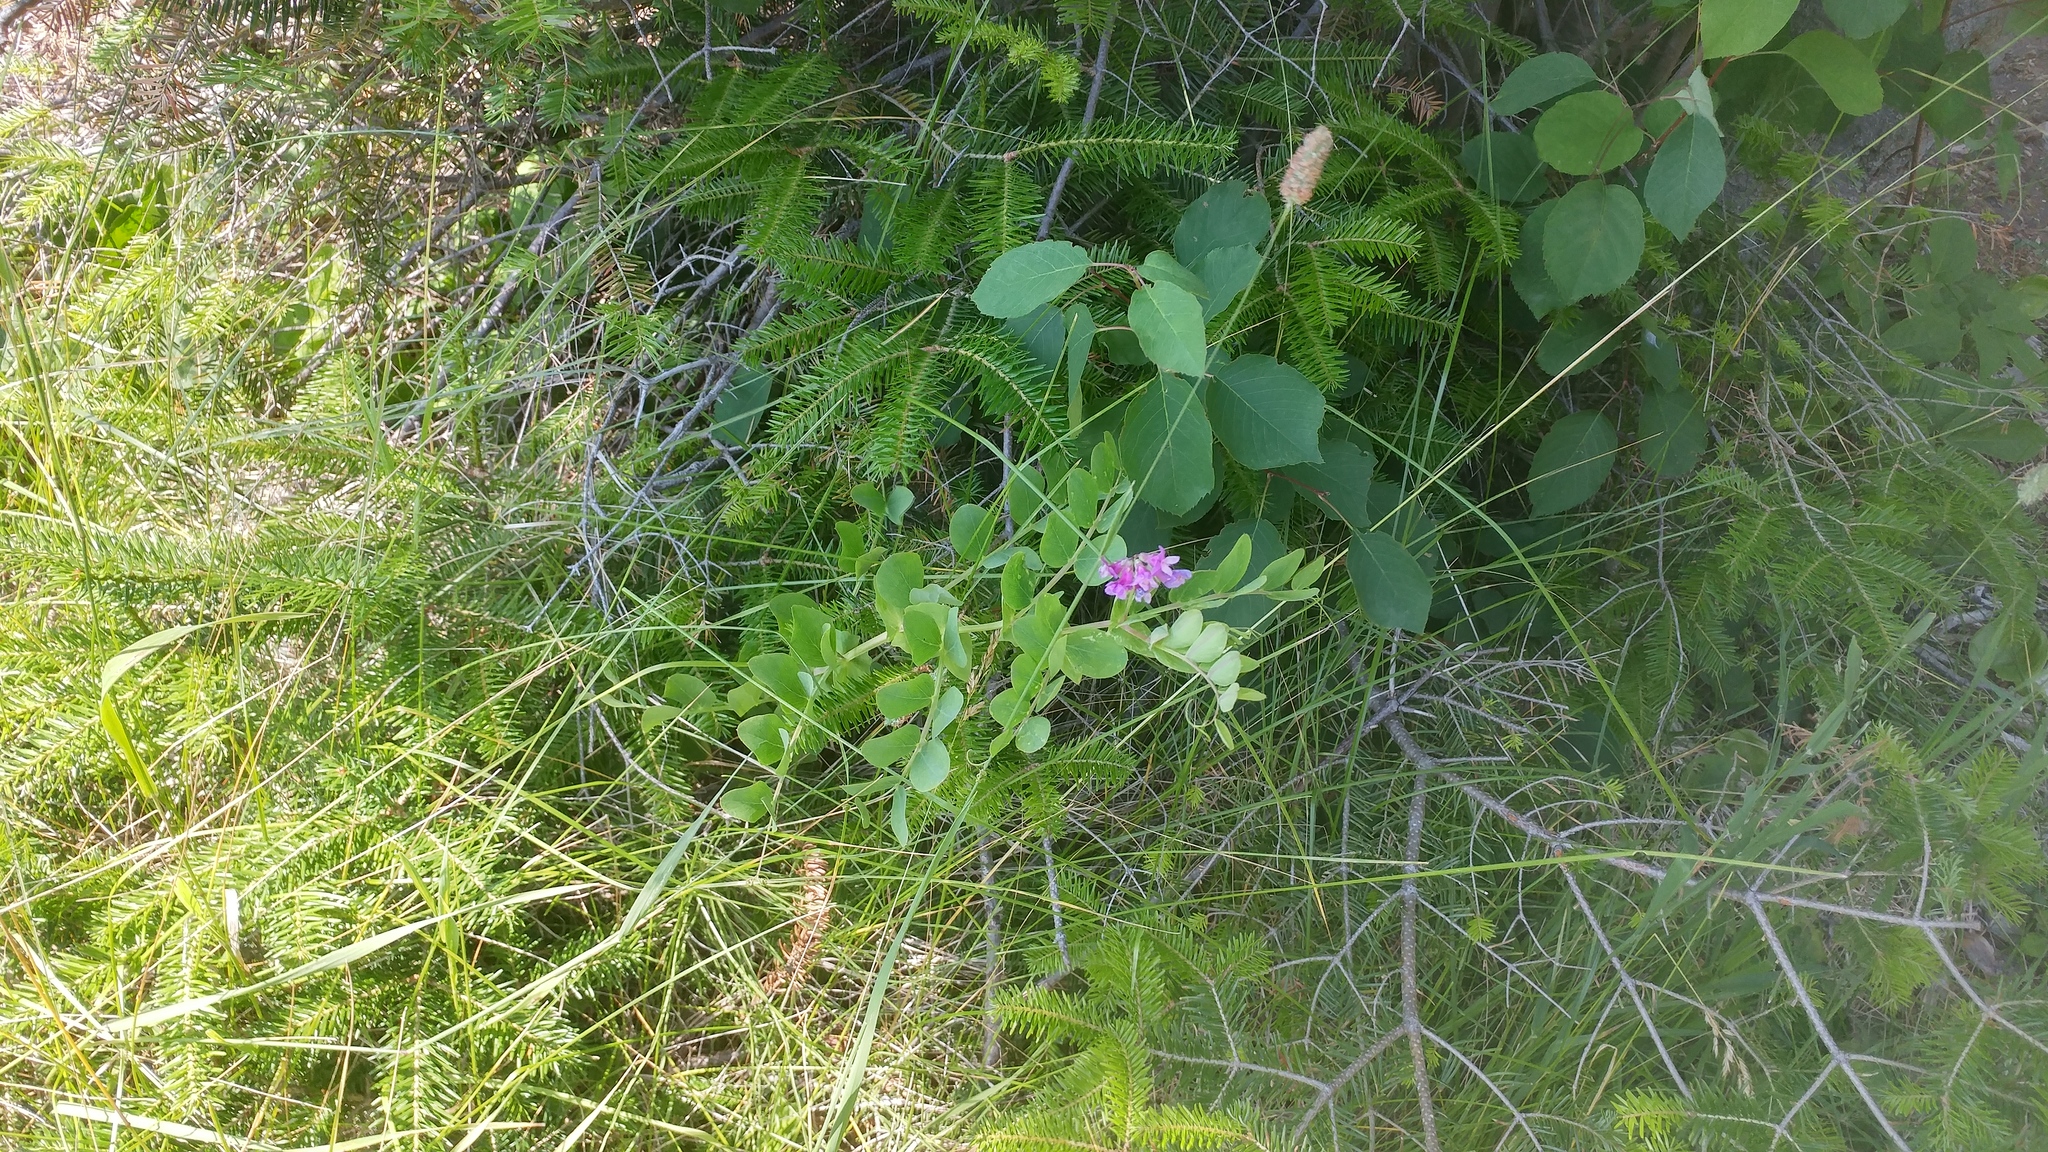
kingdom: Plantae
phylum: Tracheophyta
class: Magnoliopsida
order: Fabales
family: Fabaceae
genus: Lathyrus
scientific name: Lathyrus japonicus
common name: Sea pea
